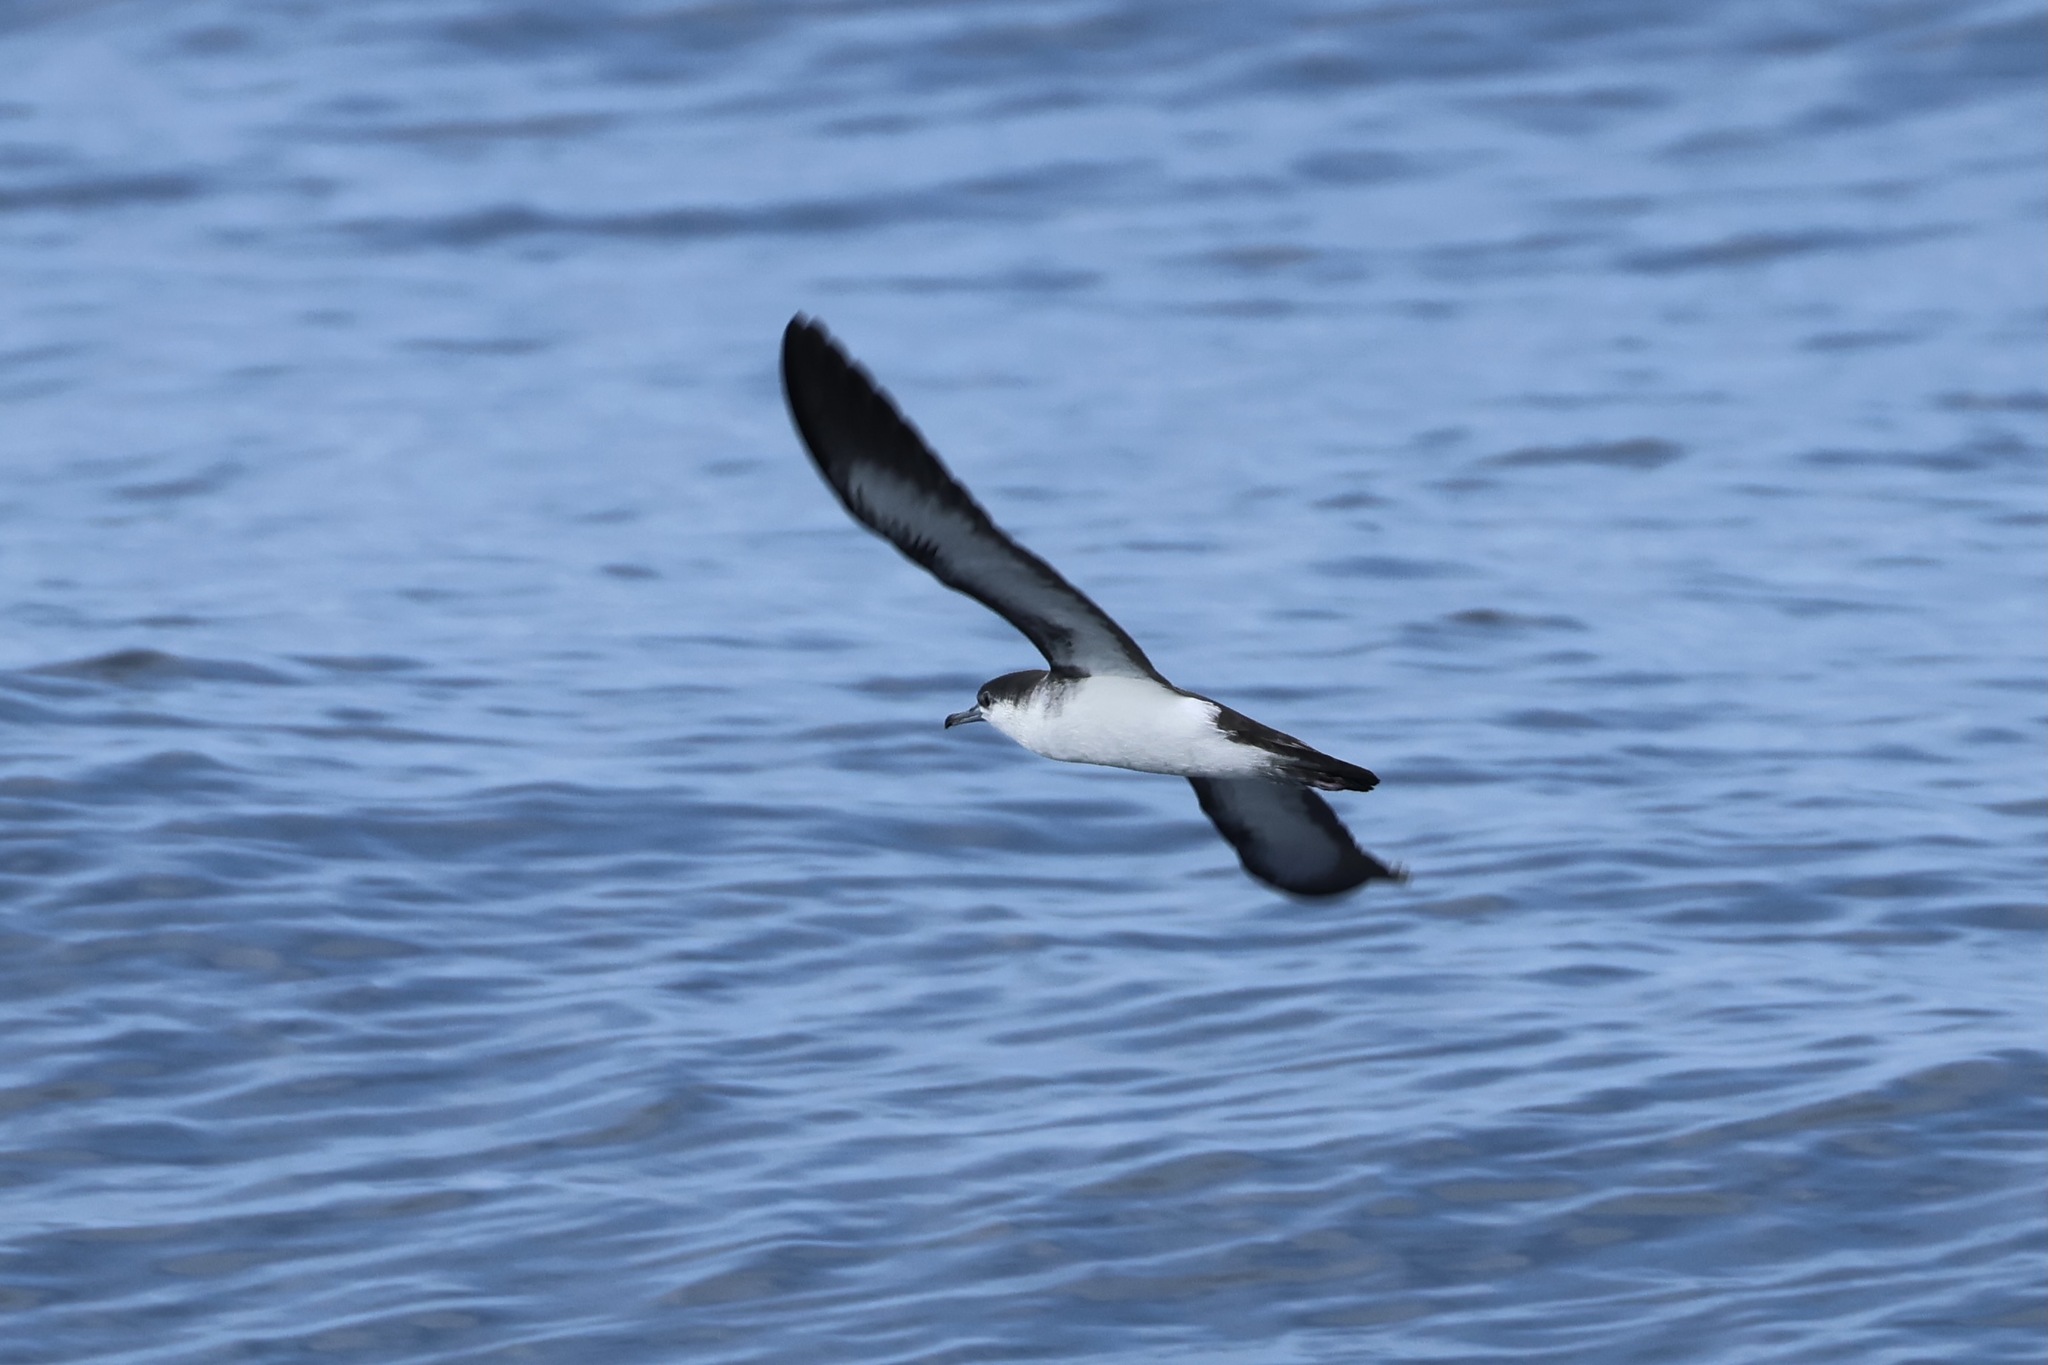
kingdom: Animalia
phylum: Chordata
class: Aves
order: Procellariiformes
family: Procellariidae
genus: Puffinus
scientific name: Puffinus lherminieri
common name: Audubon's shearwater
